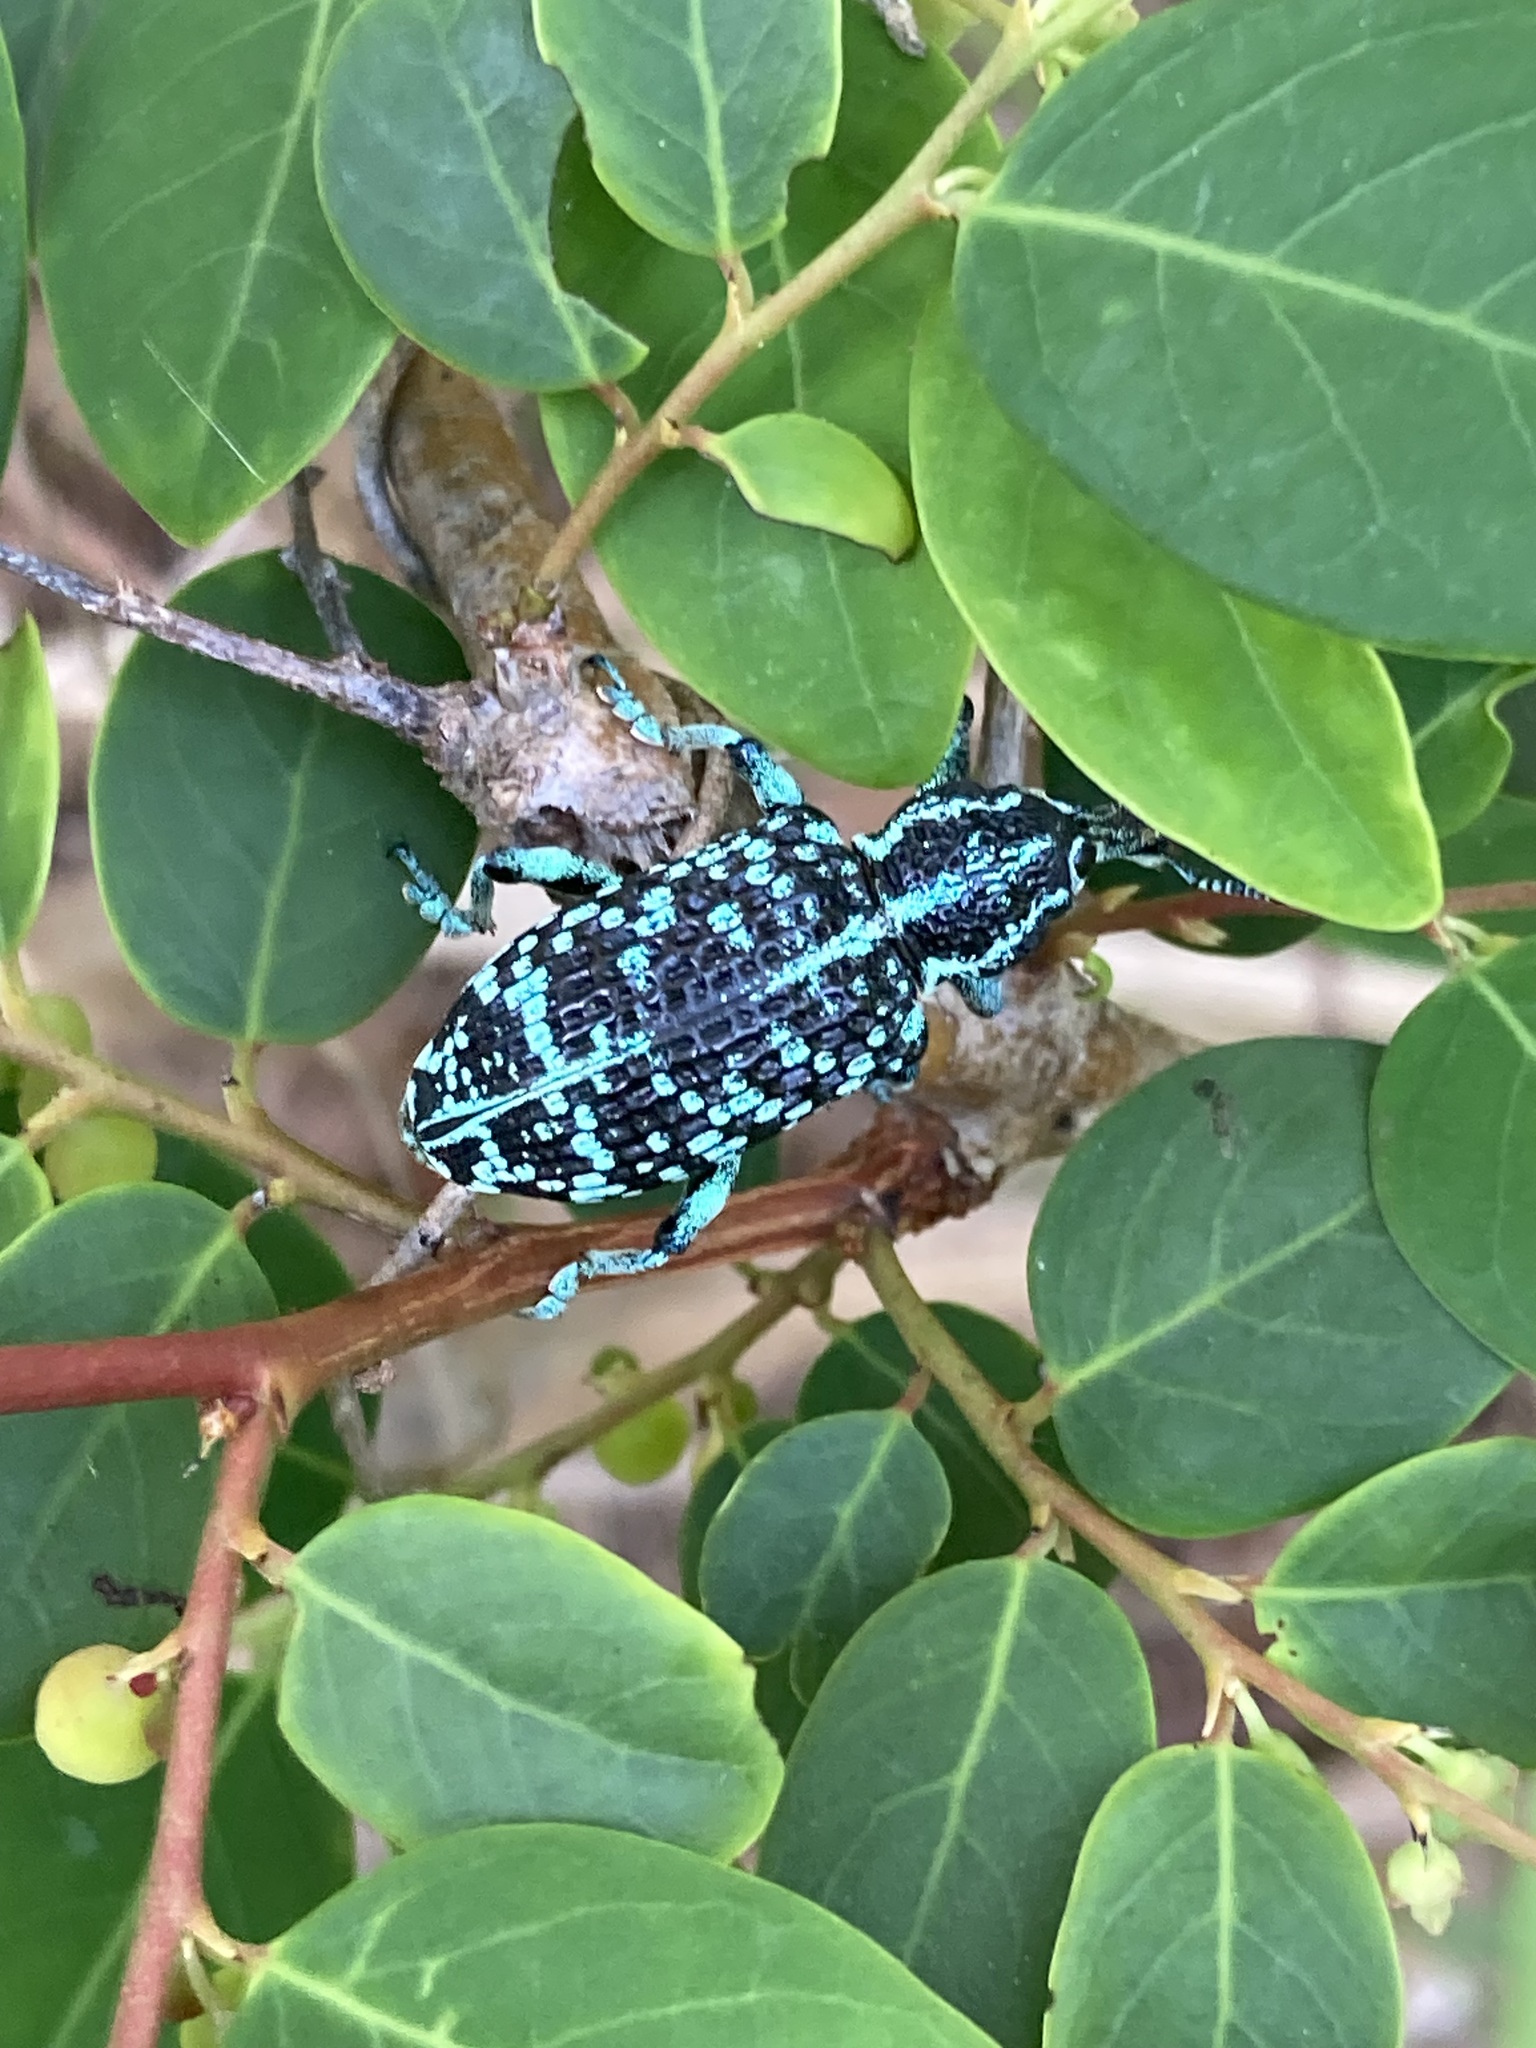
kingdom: Animalia
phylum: Arthropoda
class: Insecta
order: Coleoptera
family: Curculionidae
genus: Chrysolopus
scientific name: Chrysolopus spectabilis
